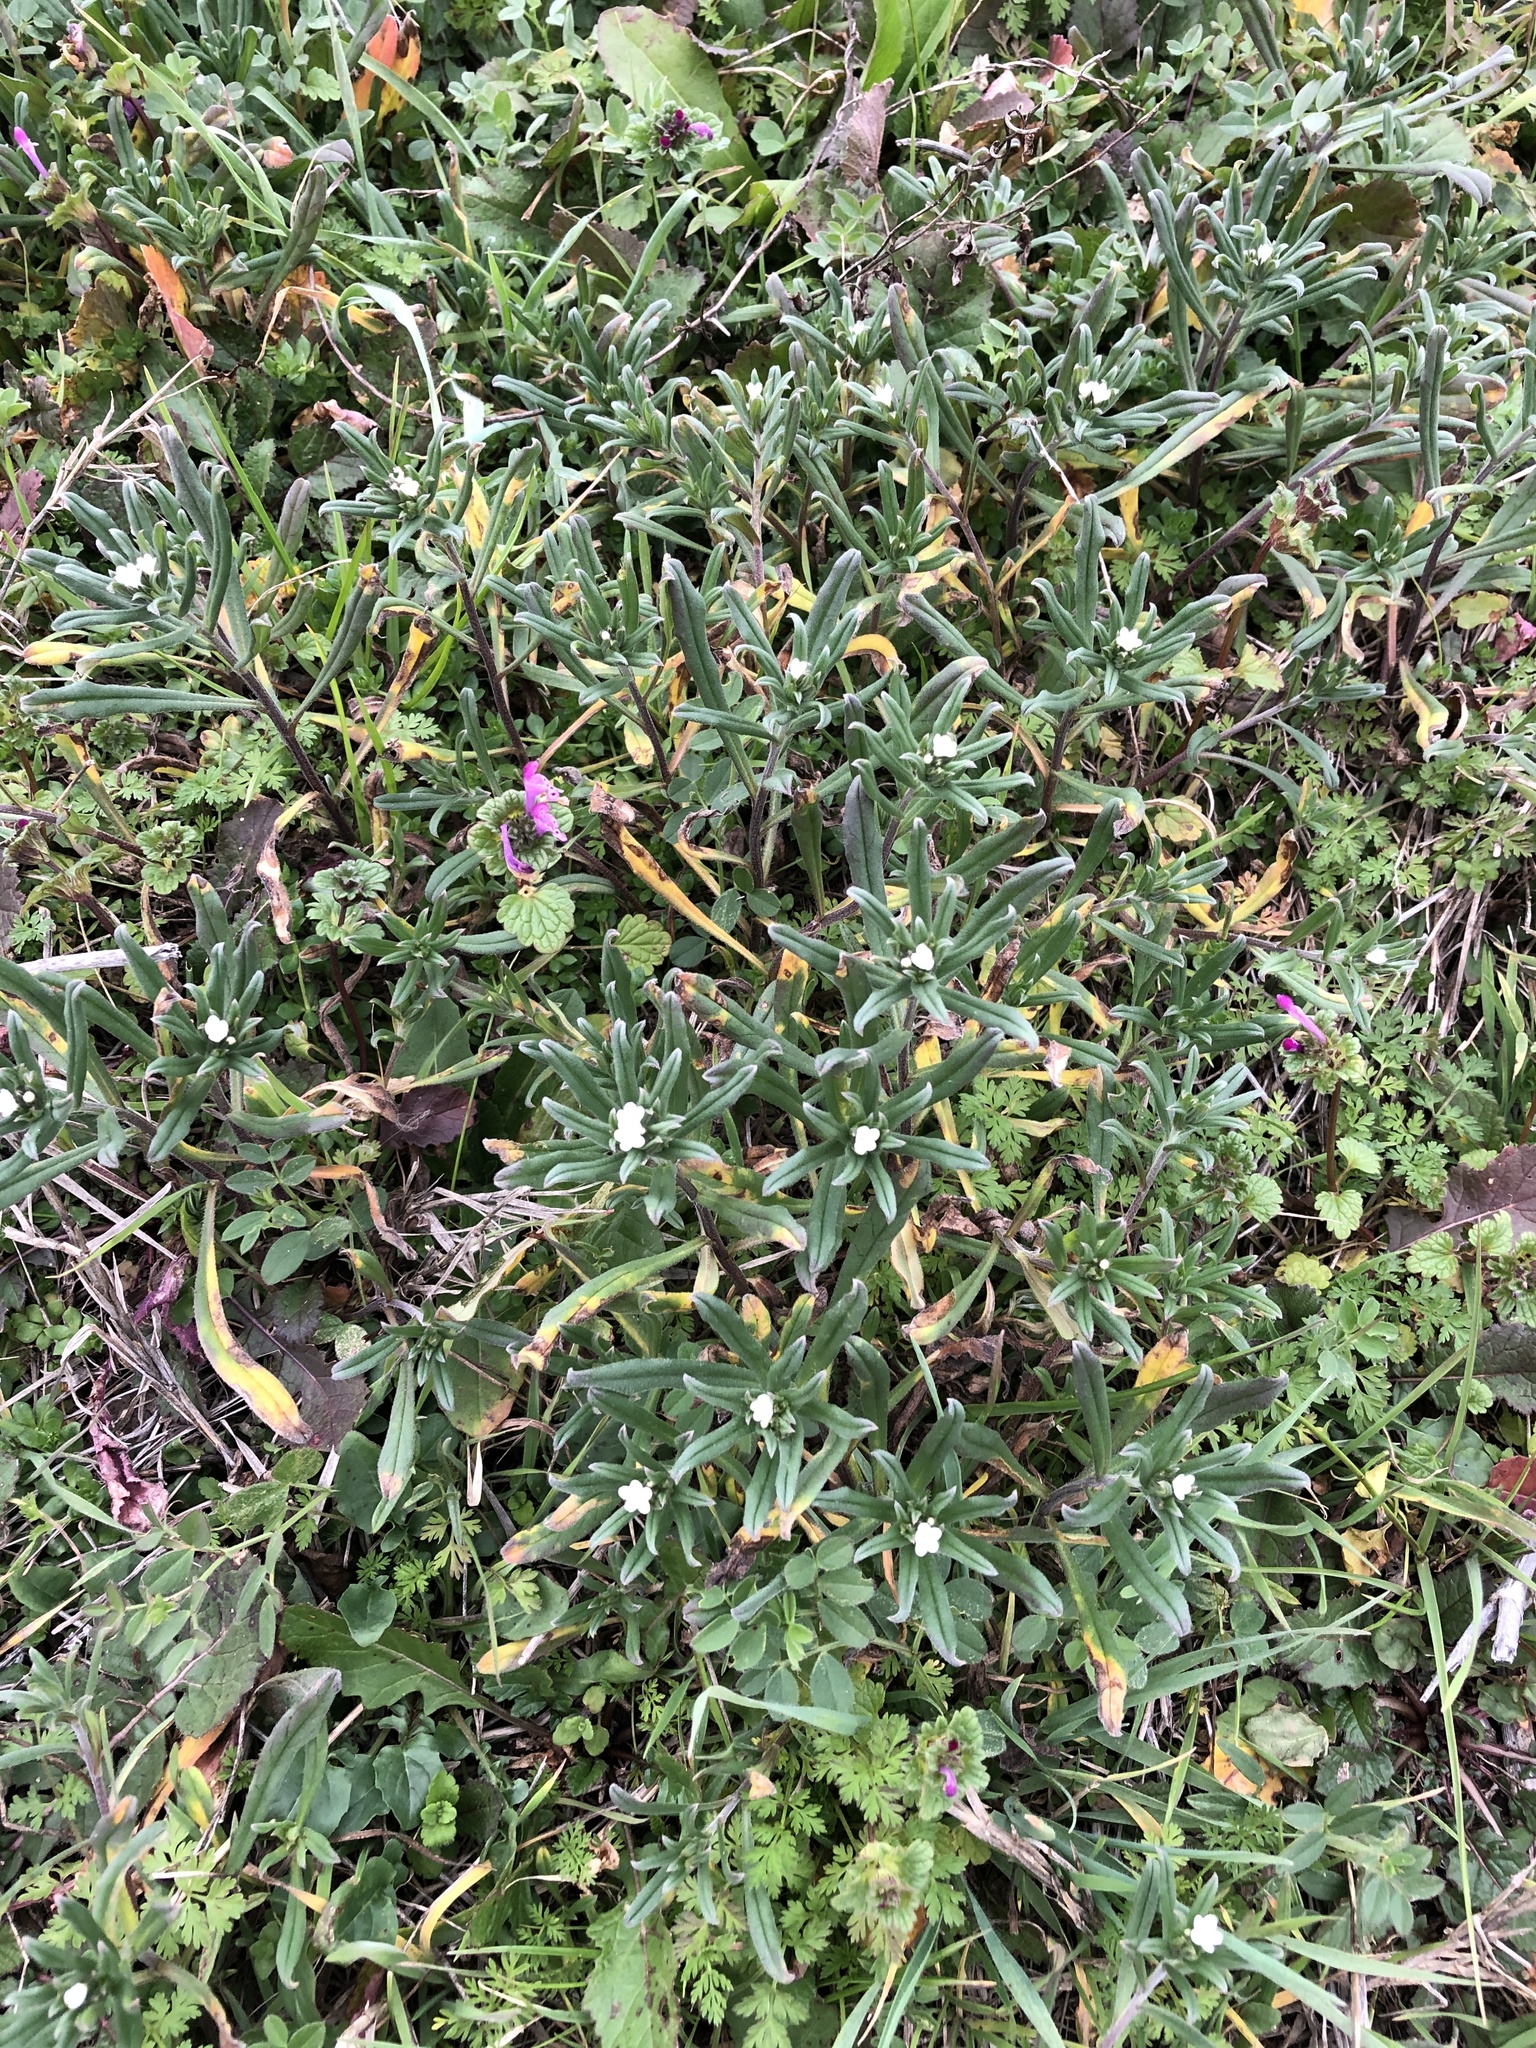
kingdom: Plantae
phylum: Tracheophyta
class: Magnoliopsida
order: Boraginales
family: Boraginaceae
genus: Buglossoides
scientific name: Buglossoides arvensis
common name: Corn gromwell
